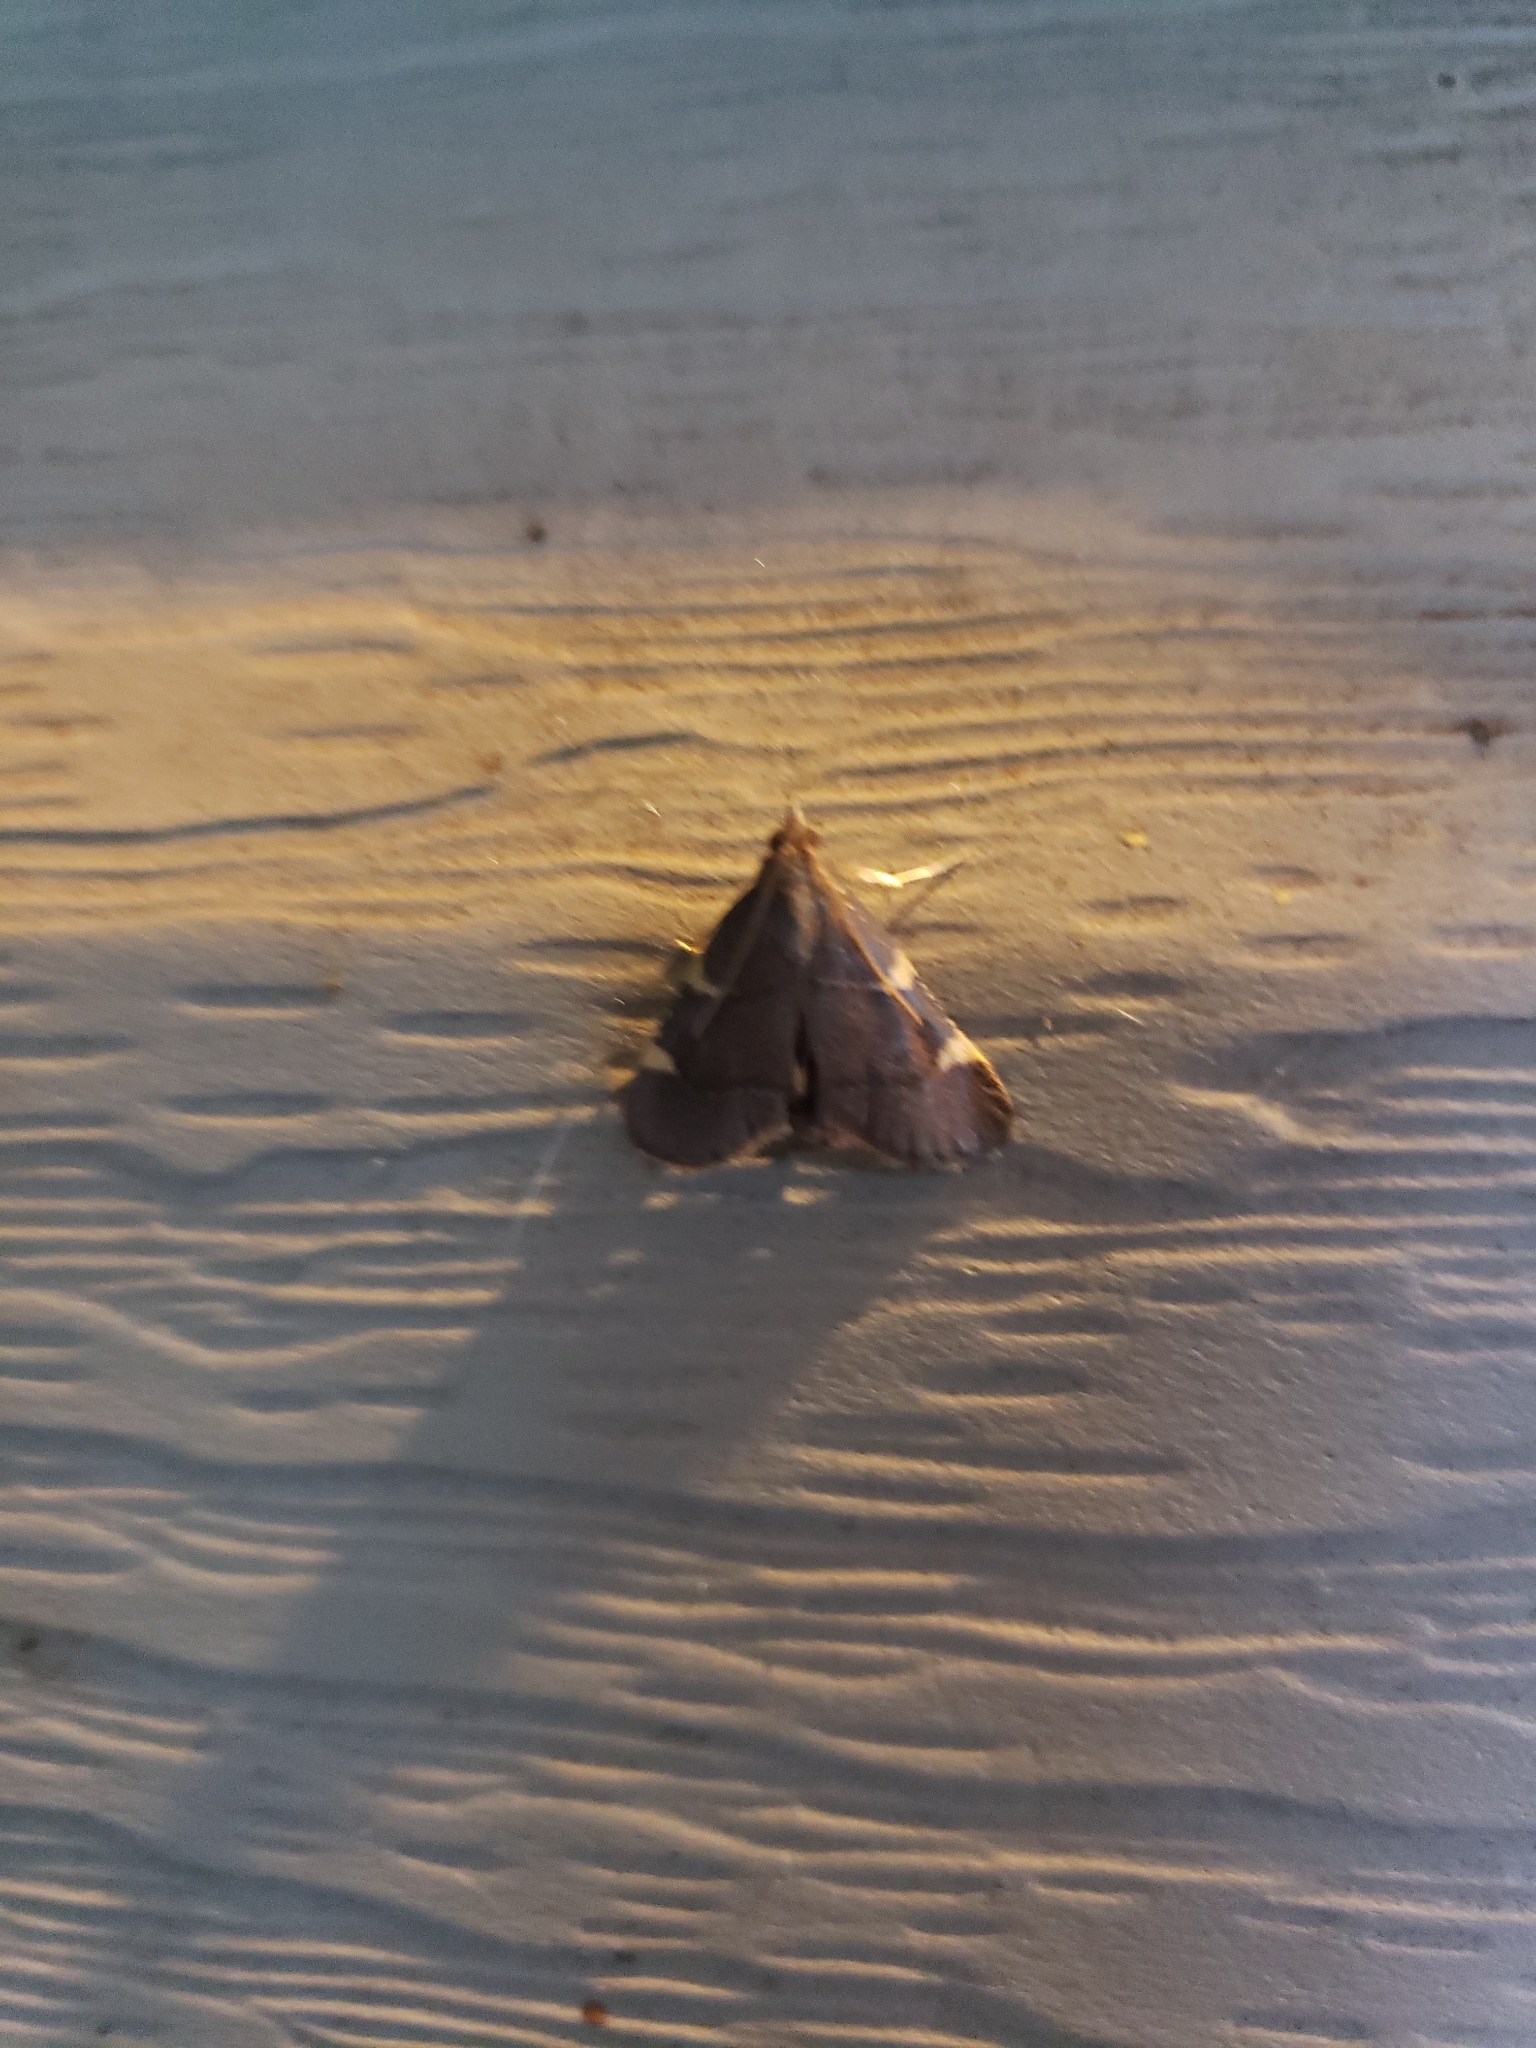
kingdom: Animalia
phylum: Arthropoda
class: Insecta
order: Lepidoptera
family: Pyralidae
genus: Hypsopygia
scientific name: Hypsopygia olinalis
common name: Yellow-fringed dolichomia moth
